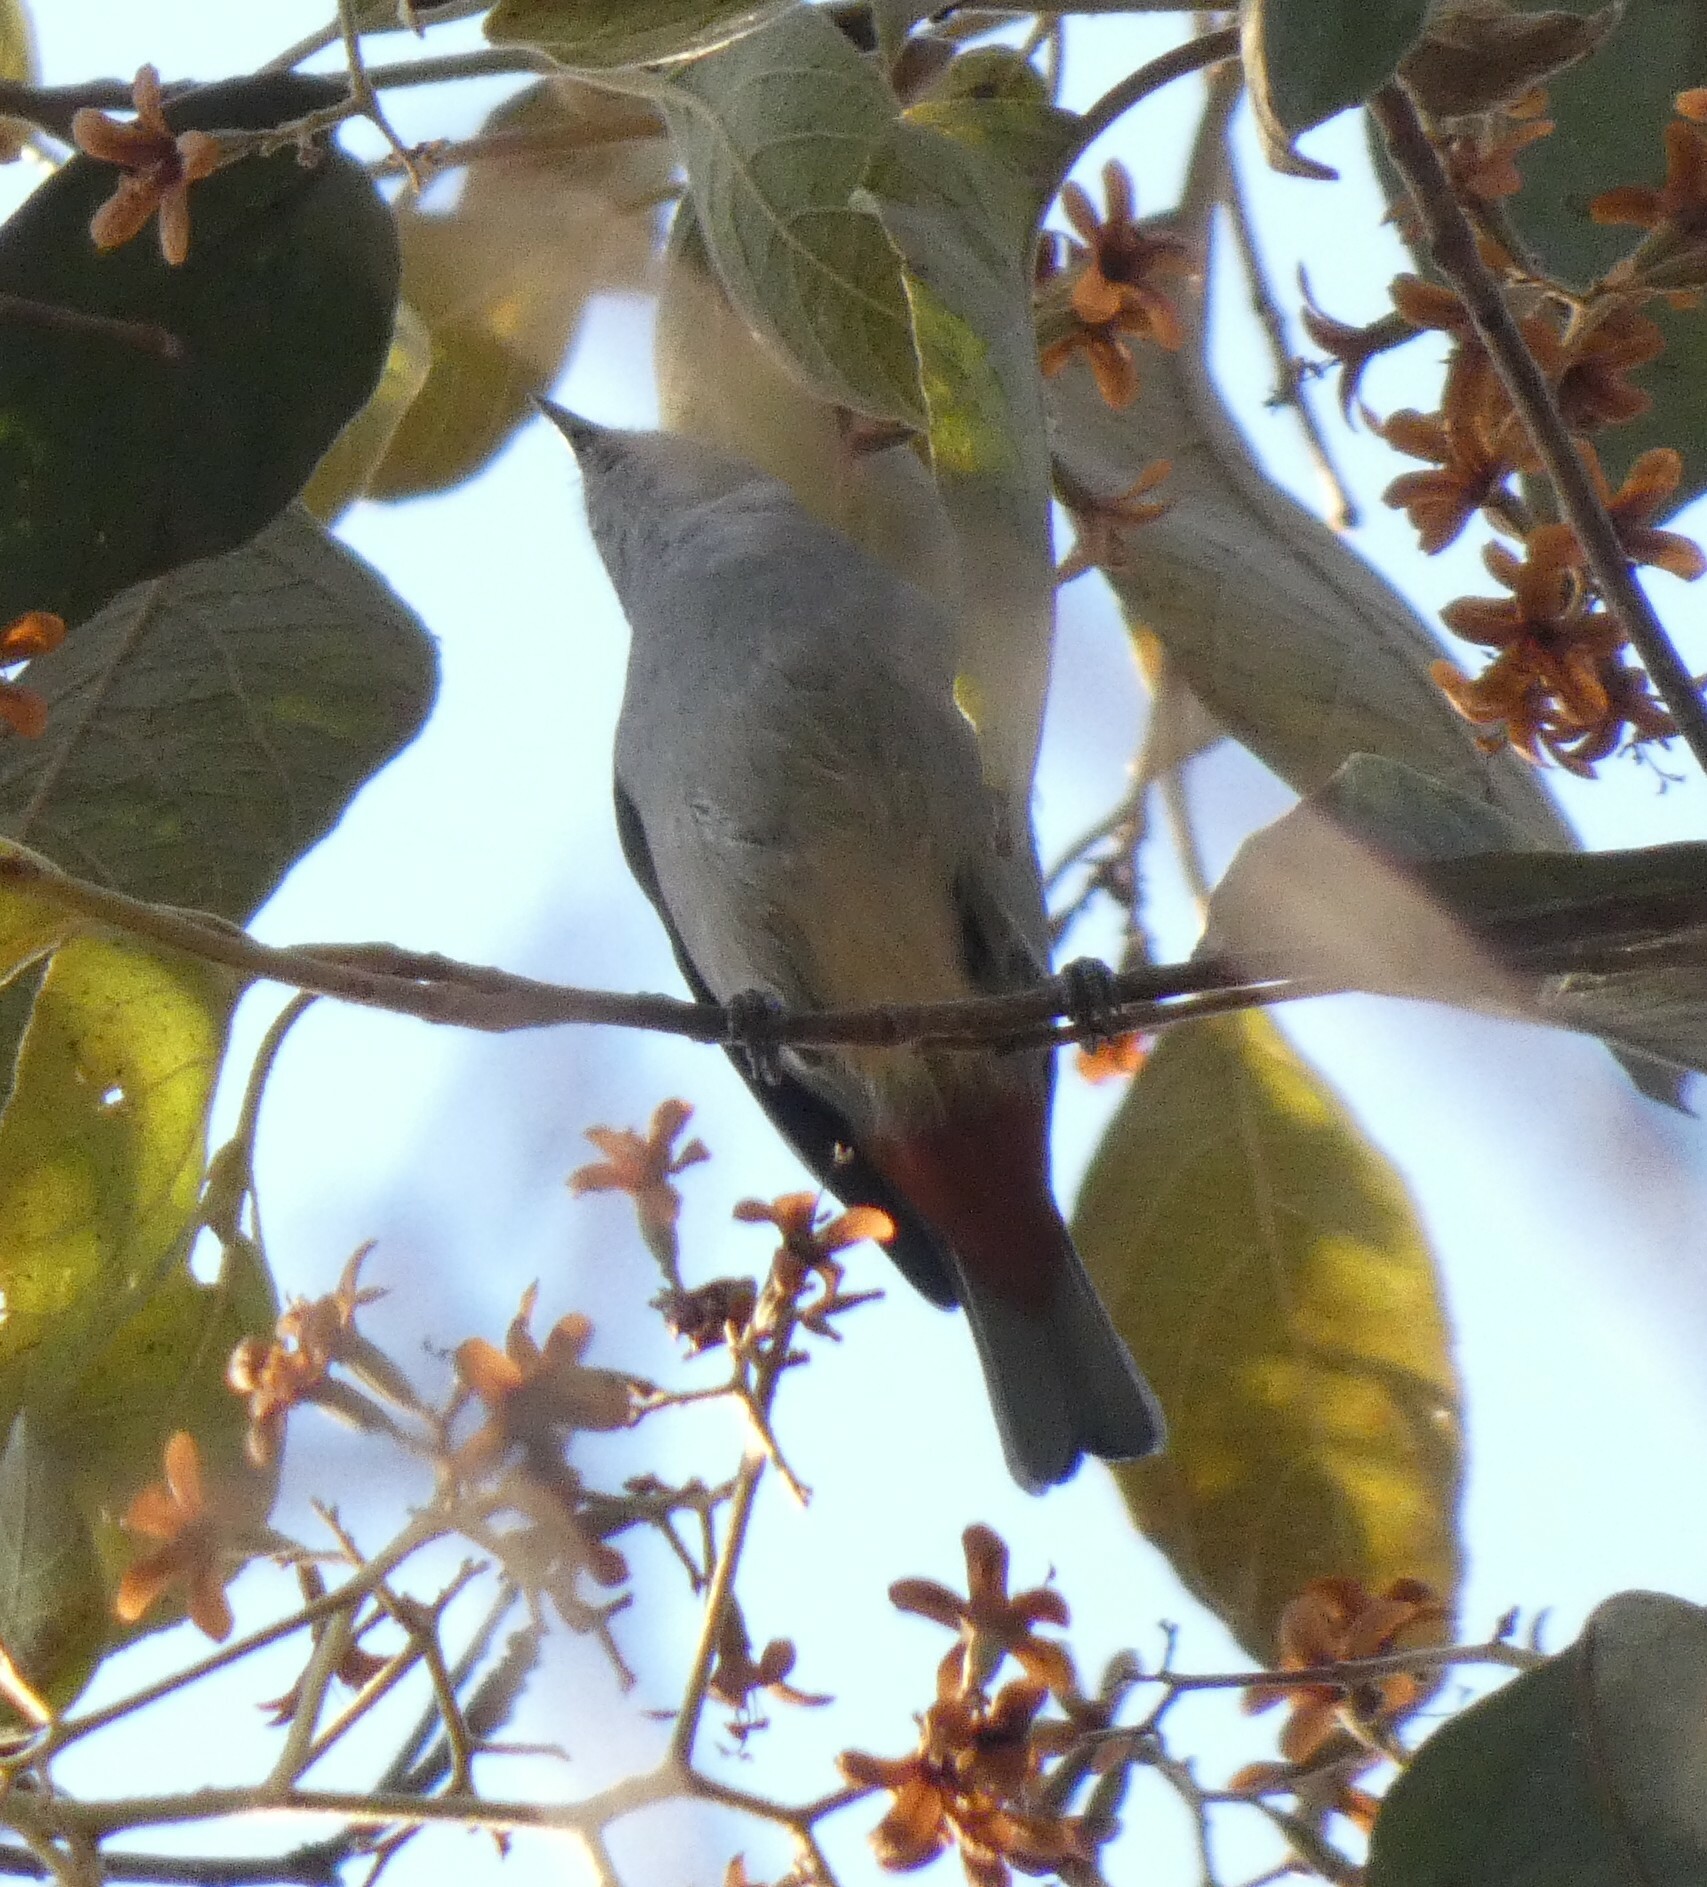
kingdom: Animalia
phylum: Chordata
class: Aves
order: Passeriformes
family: Thraupidae
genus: Conirostrum
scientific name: Conirostrum speciosum
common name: Chestnut-vented conebill
